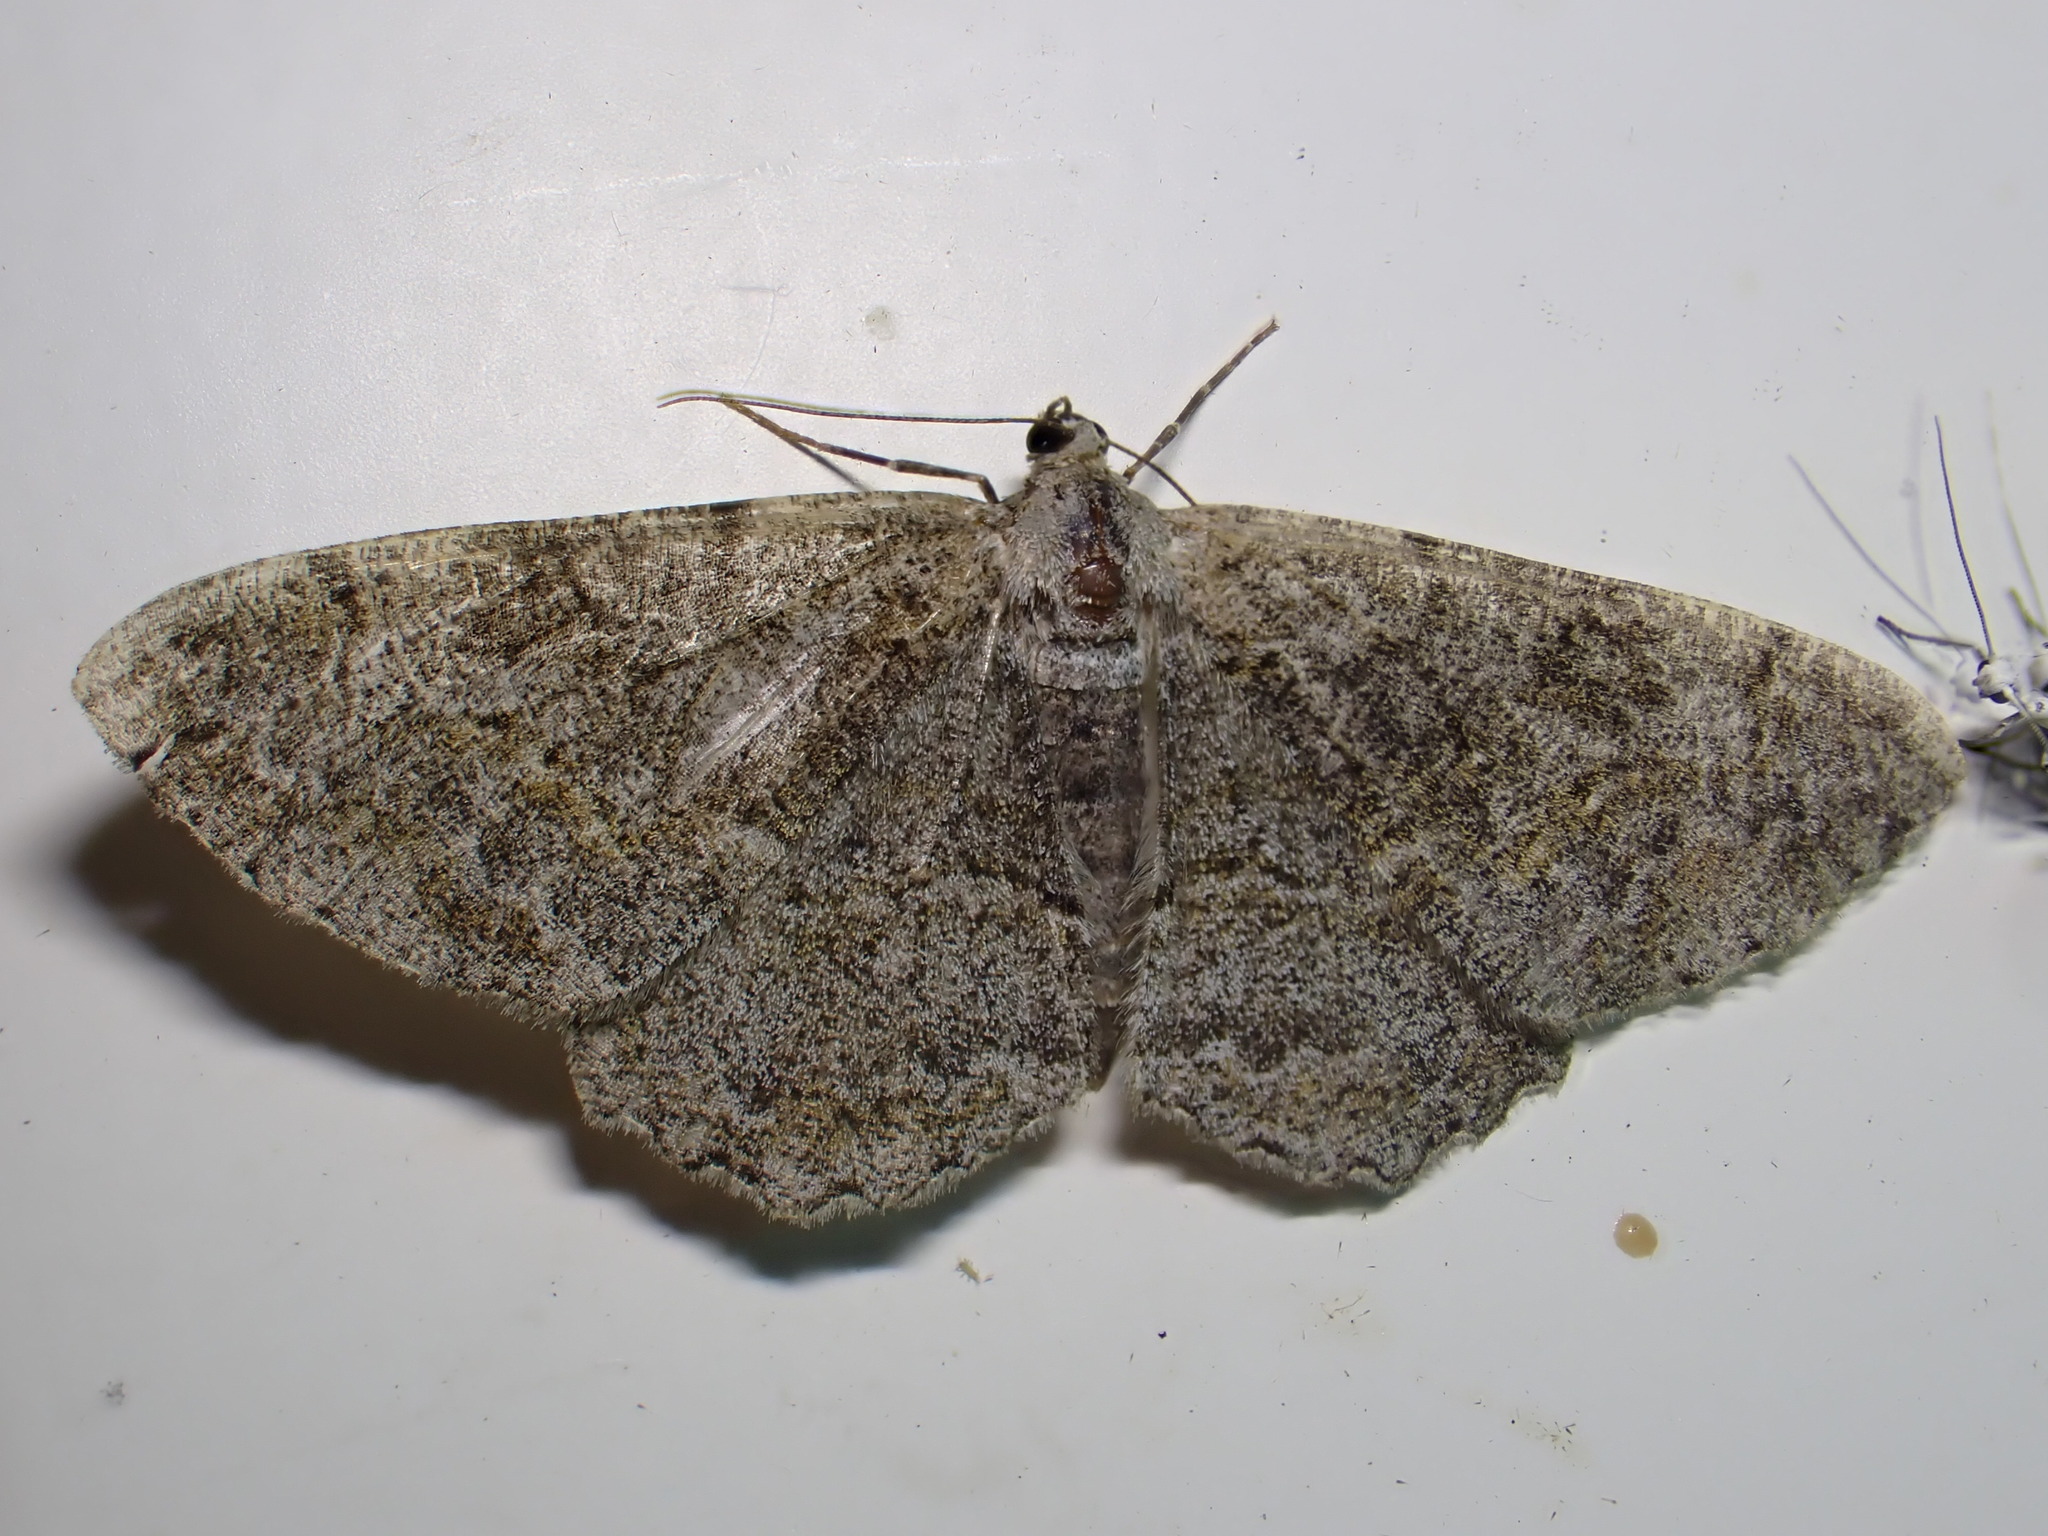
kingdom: Animalia
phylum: Arthropoda
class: Insecta
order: Lepidoptera
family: Geometridae
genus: Alcis
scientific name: Alcis repandata
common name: Mottled beauty
